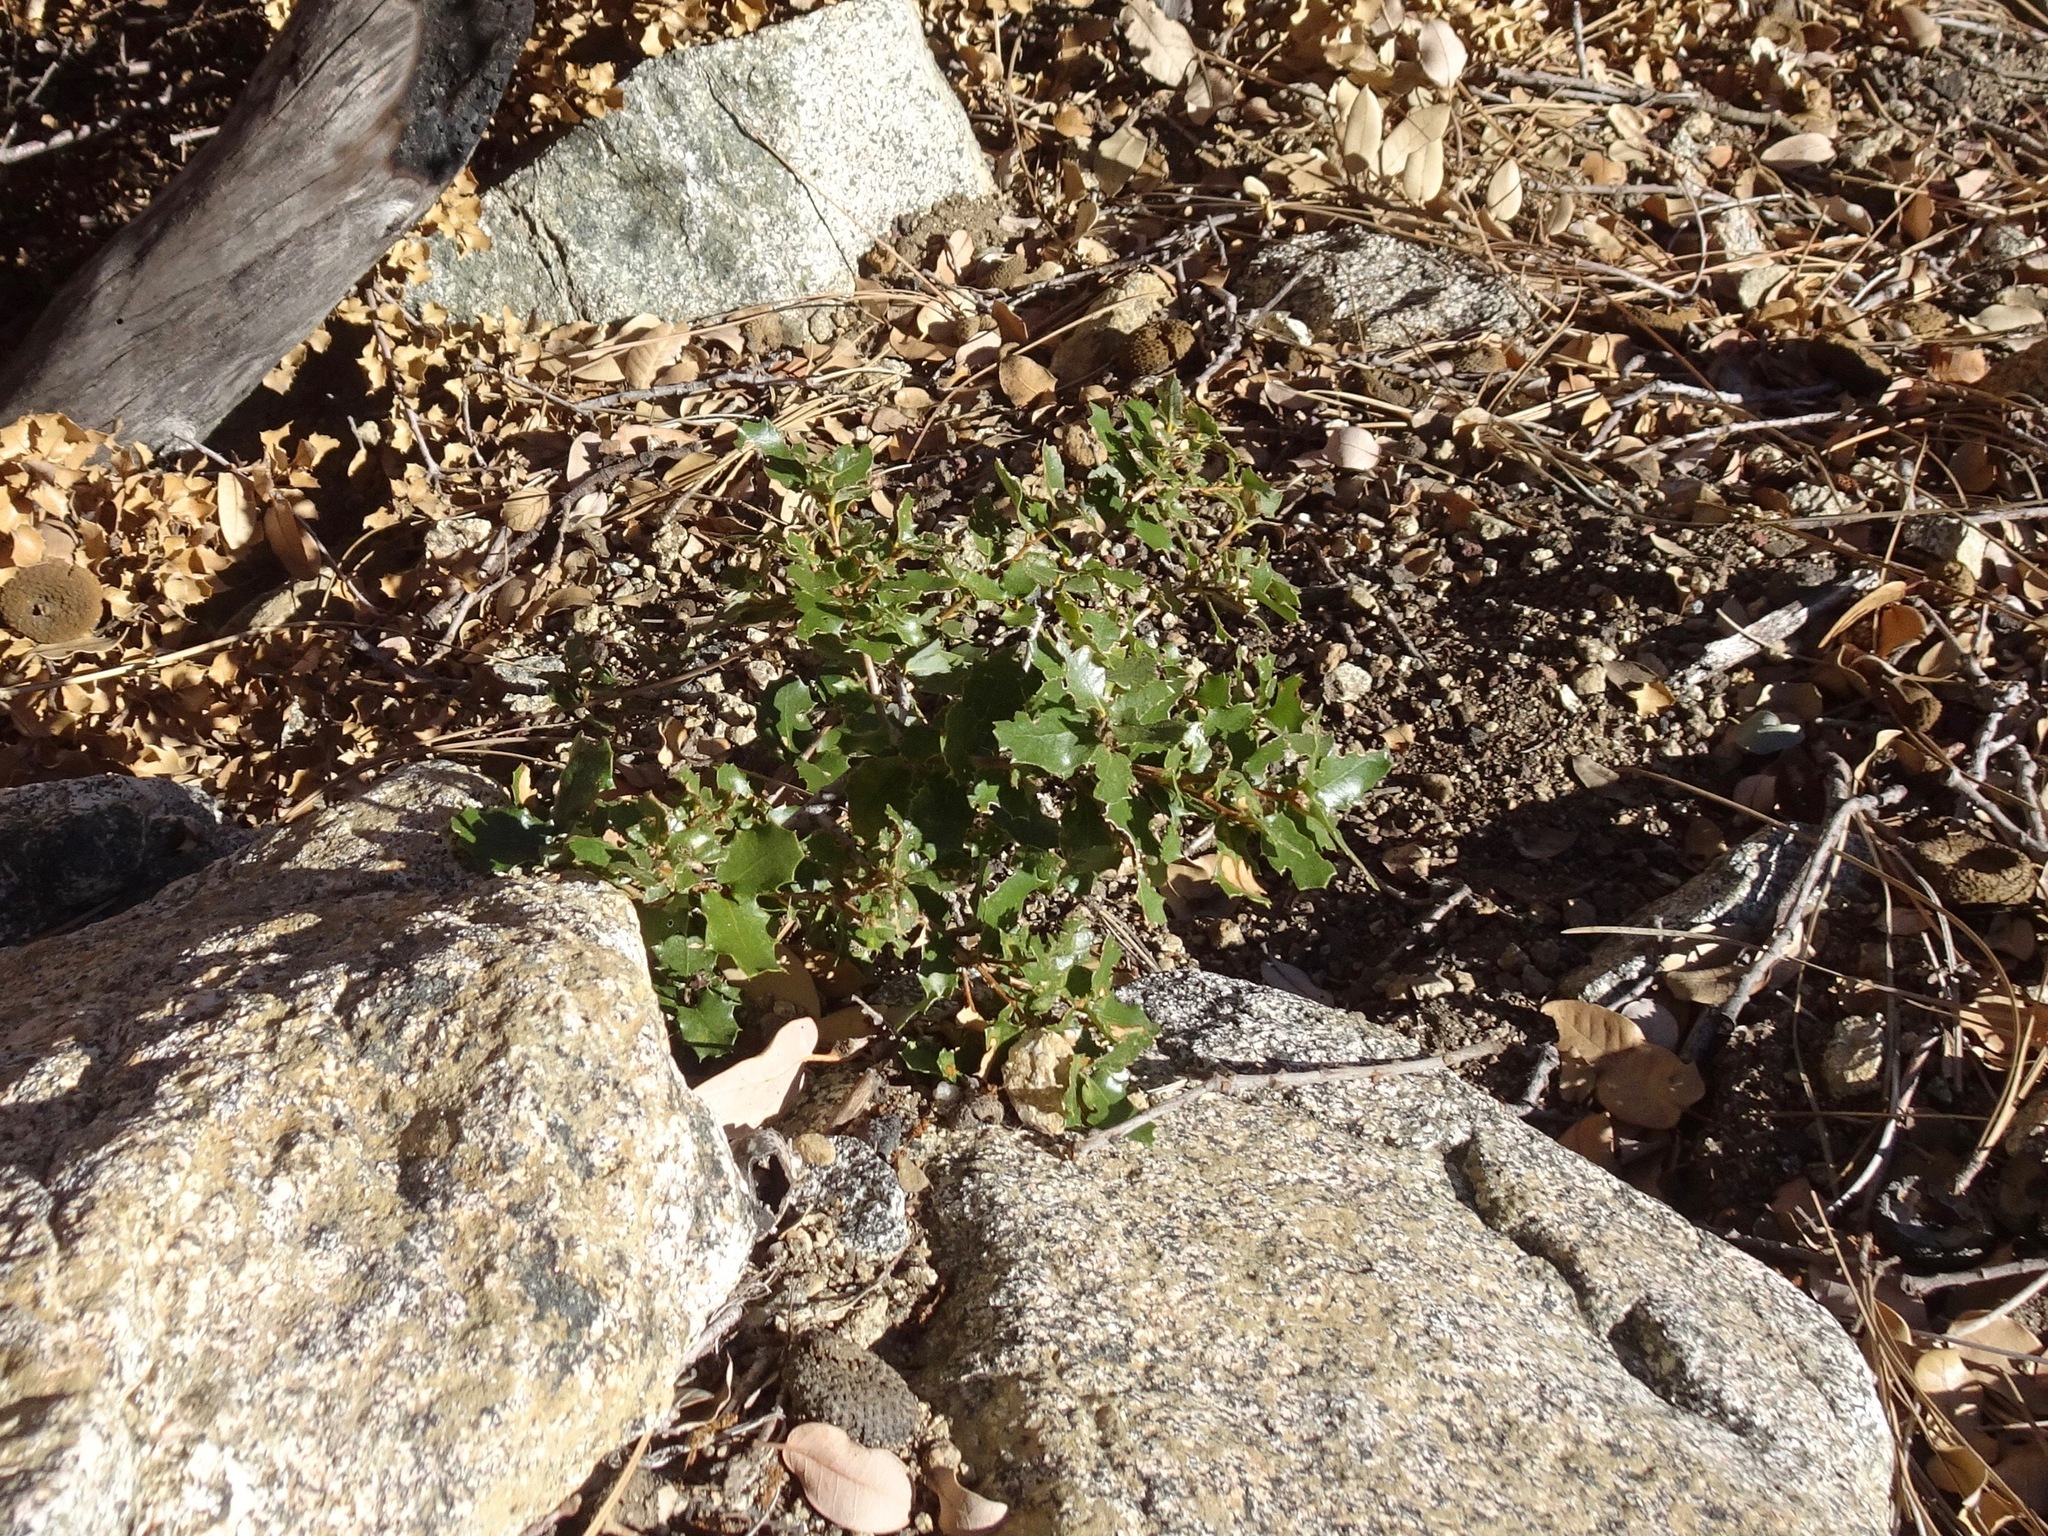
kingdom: Plantae
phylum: Tracheophyta
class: Magnoliopsida
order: Fagales
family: Fagaceae
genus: Quercus
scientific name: Quercus berberidifolia
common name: California scrub oak
